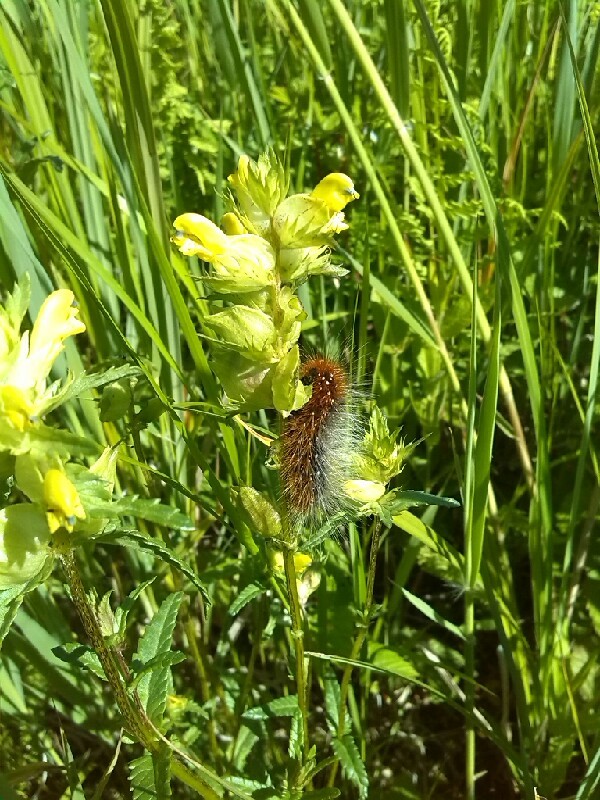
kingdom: Animalia
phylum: Arthropoda
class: Insecta
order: Lepidoptera
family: Erebidae
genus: Arctia
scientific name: Arctia caja
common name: Garden tiger
